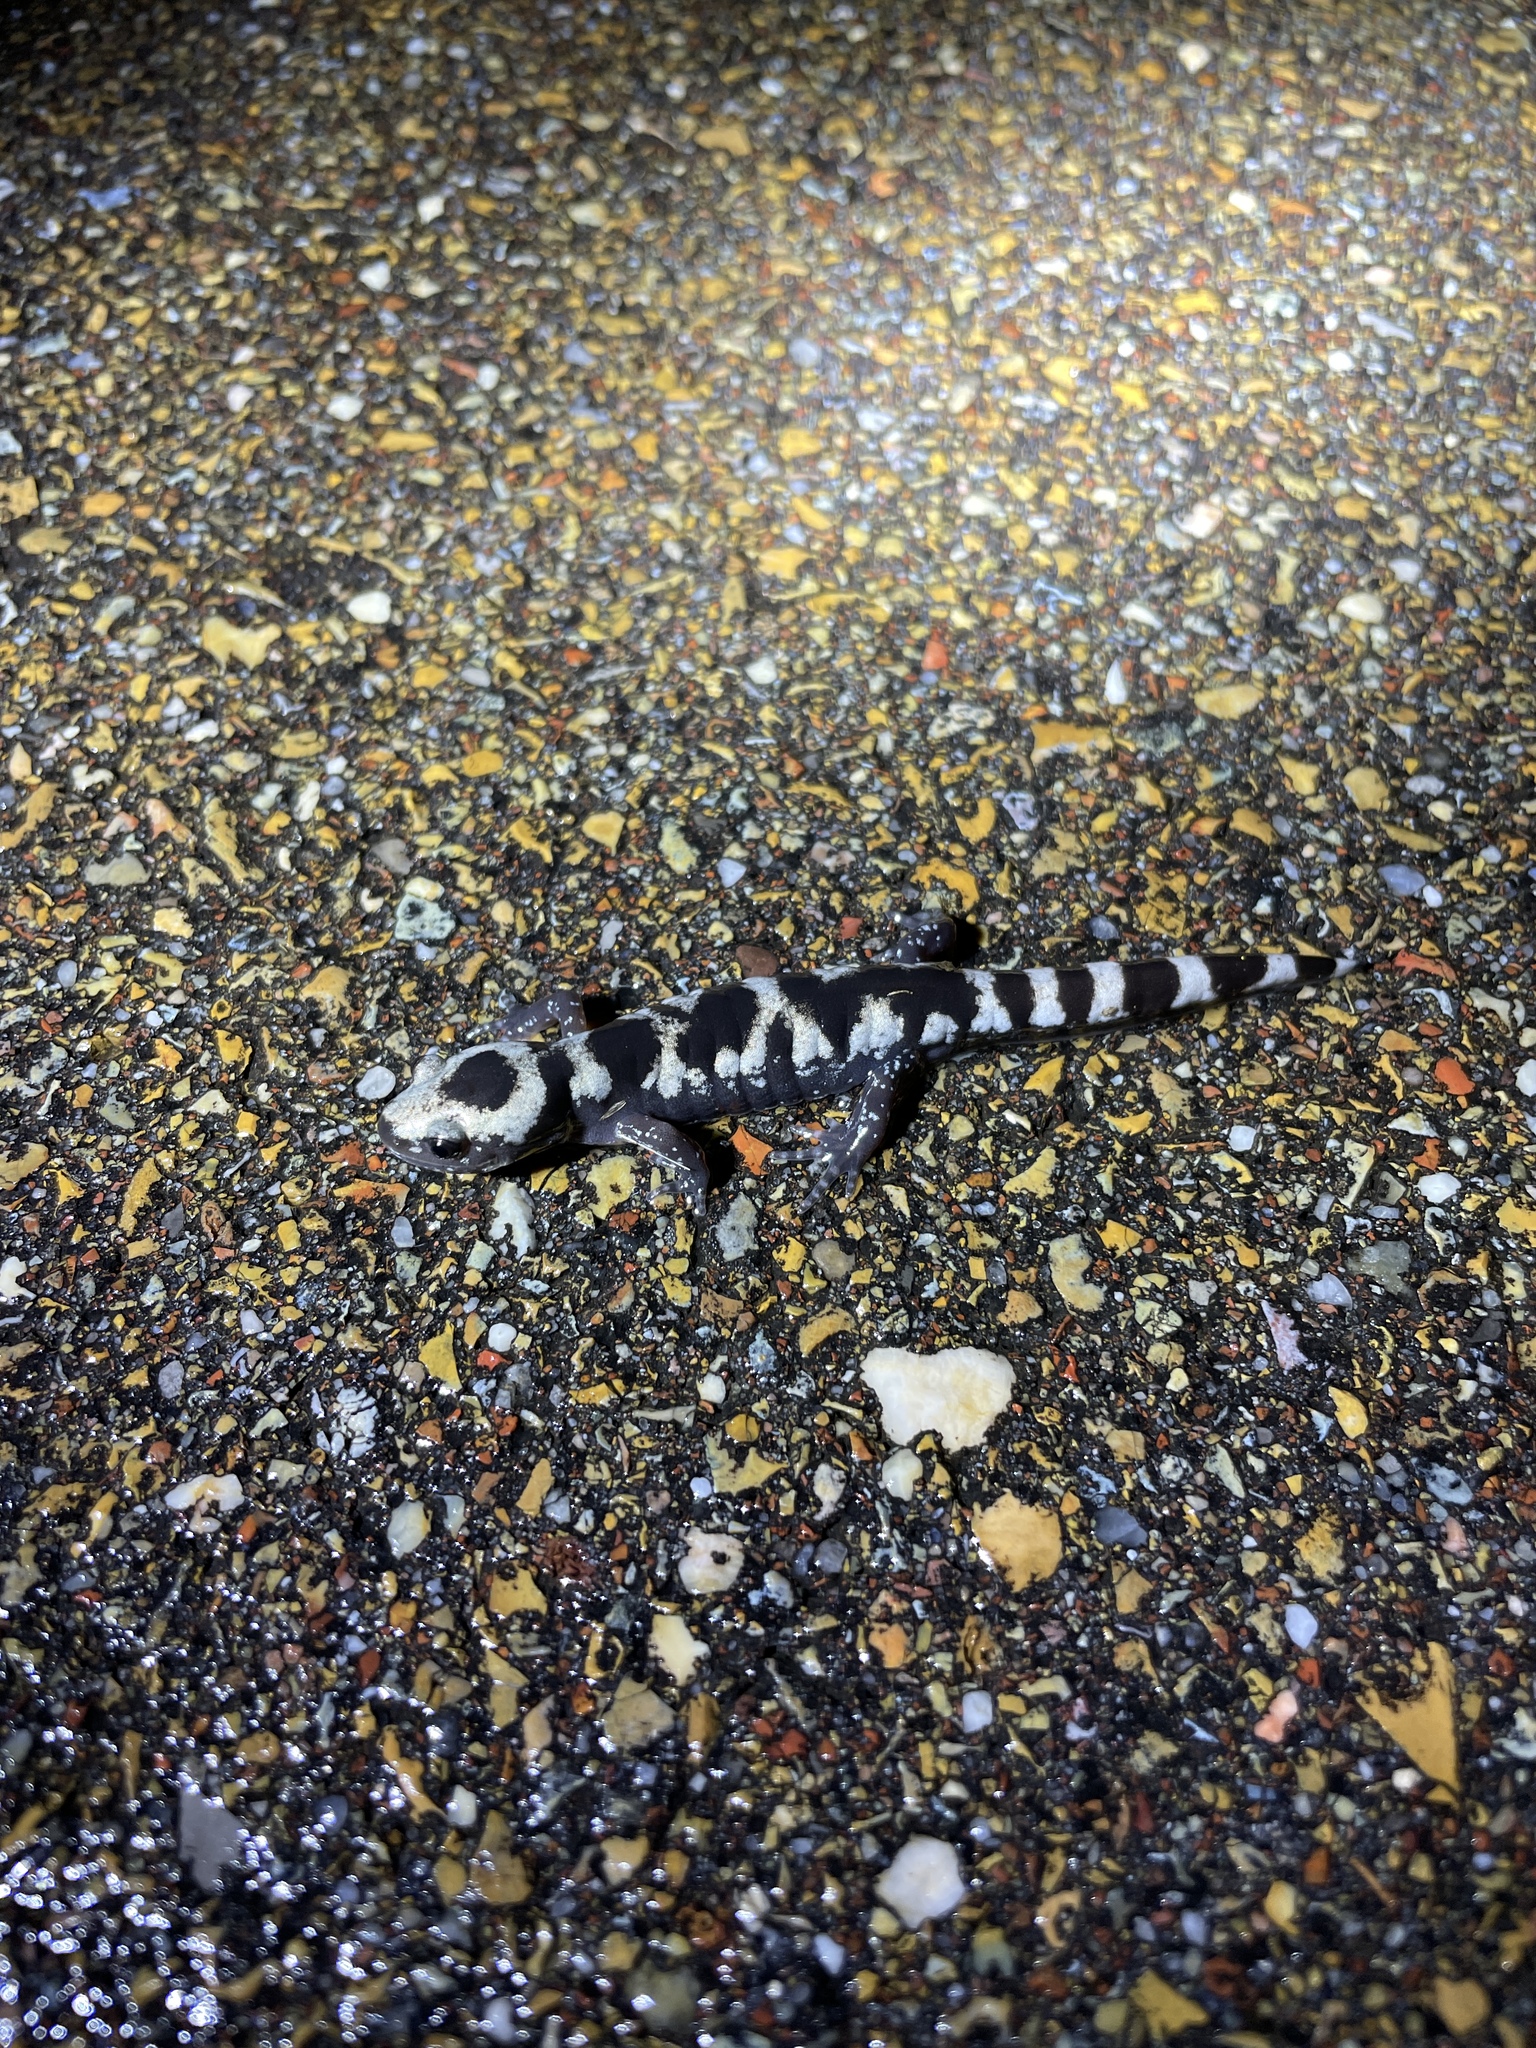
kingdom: Animalia
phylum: Chordata
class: Amphibia
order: Caudata
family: Ambystomatidae
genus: Ambystoma
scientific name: Ambystoma opacum
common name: Marbled salamander
